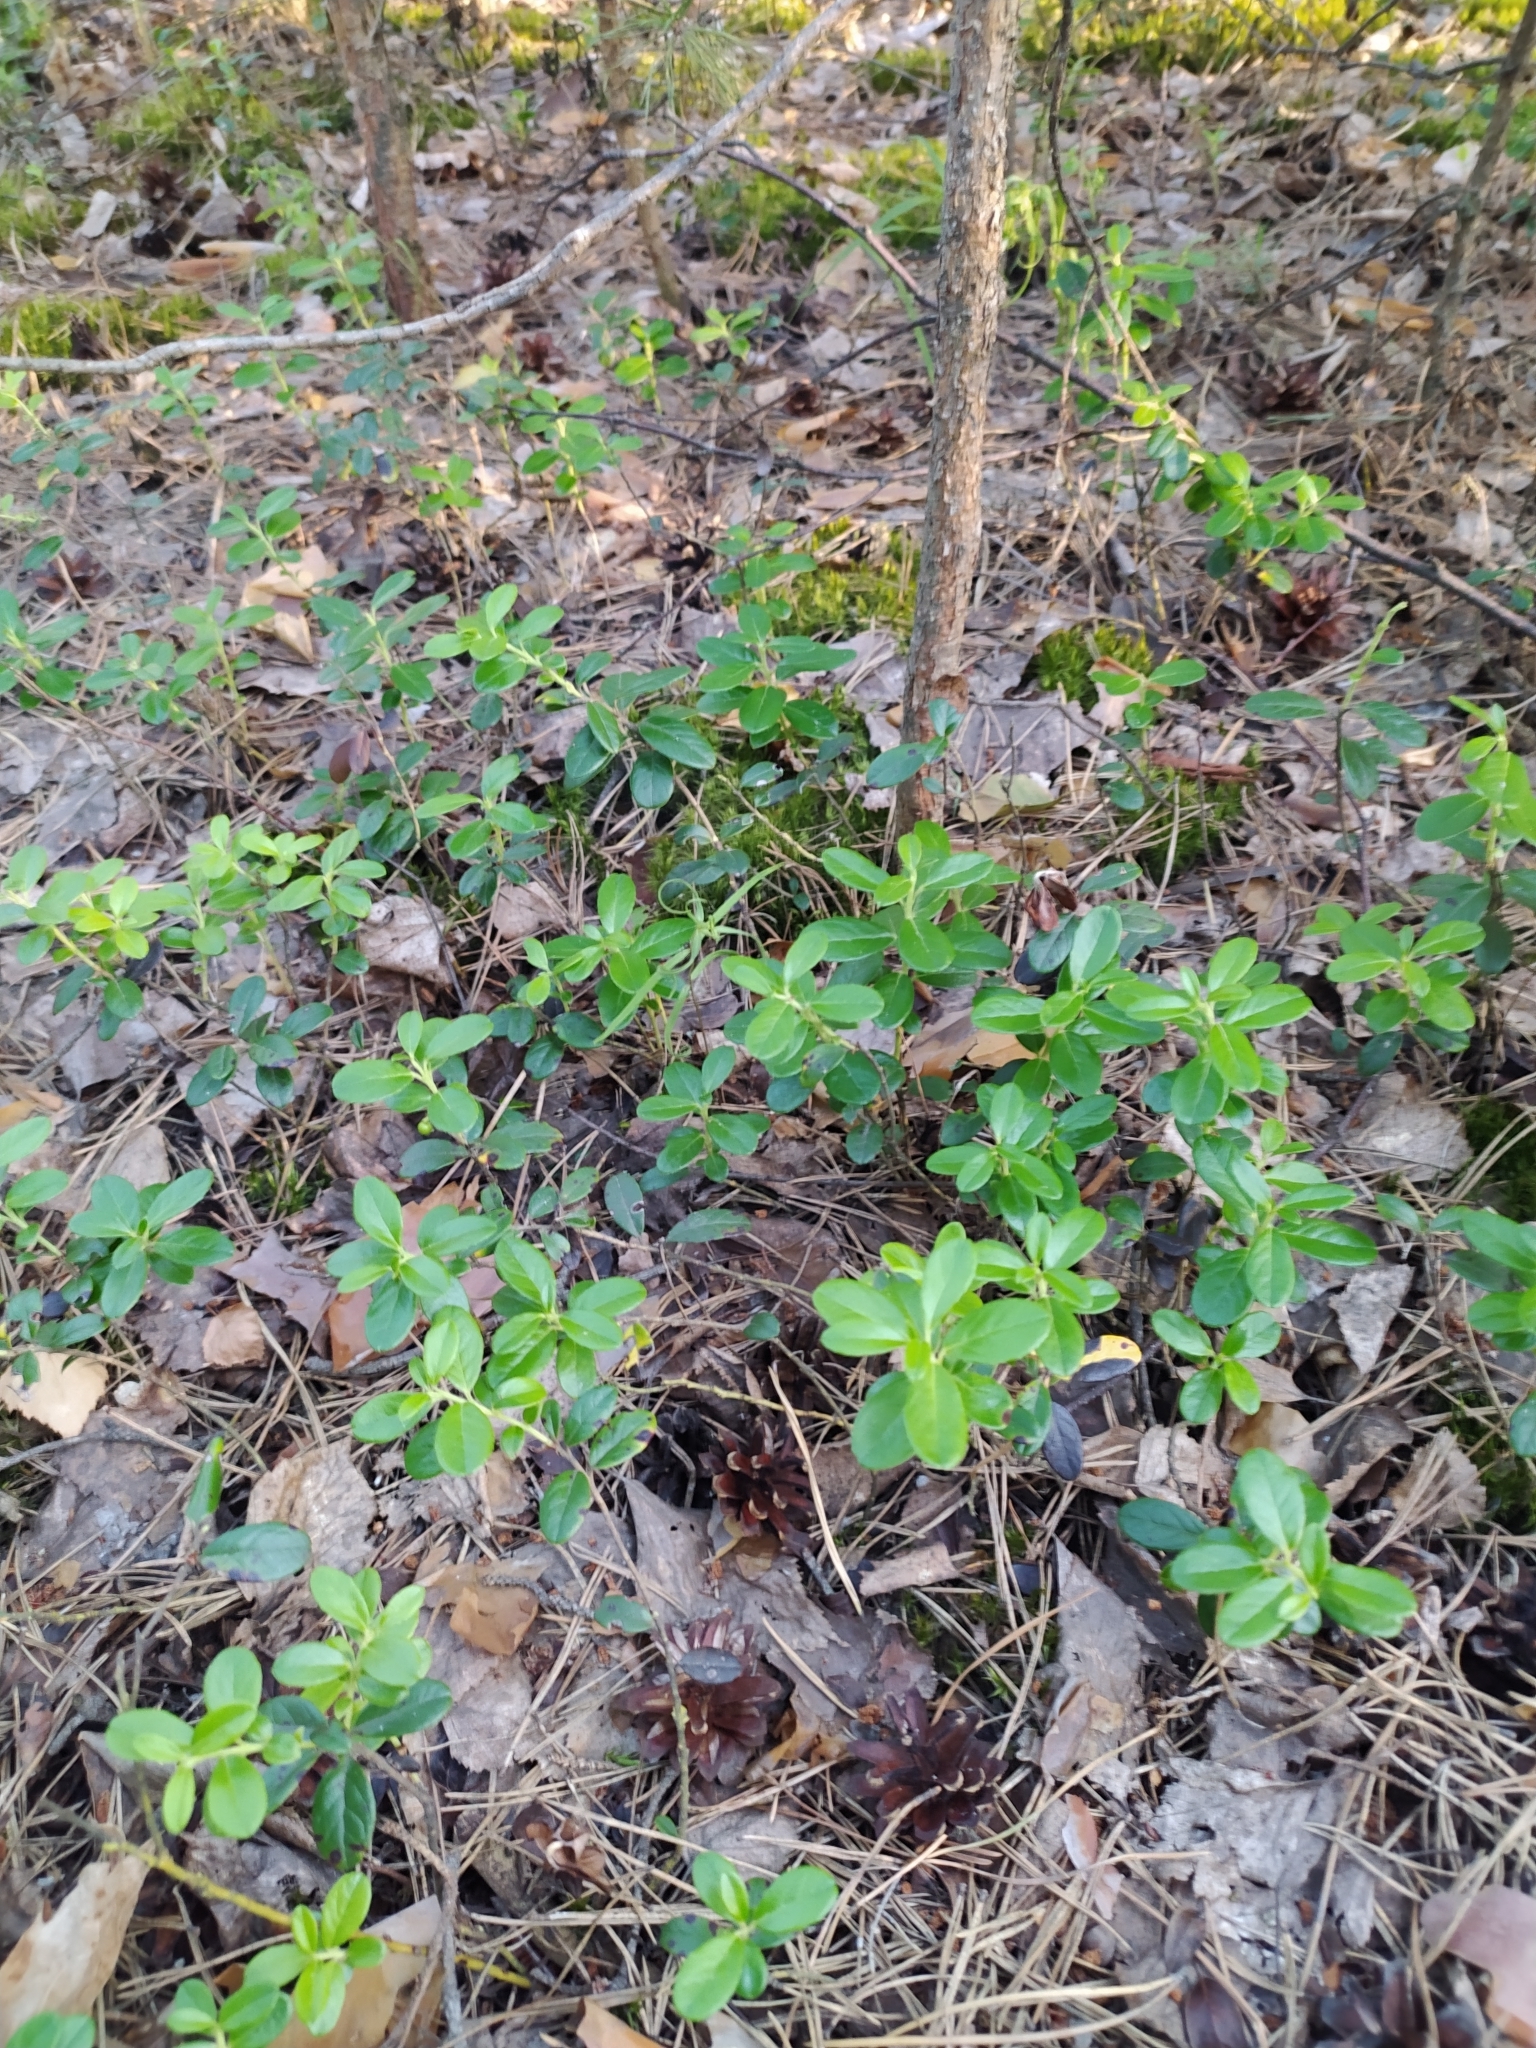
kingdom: Plantae
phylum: Tracheophyta
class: Magnoliopsida
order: Ericales
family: Ericaceae
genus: Vaccinium
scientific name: Vaccinium vitis-idaea
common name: Cowberry
